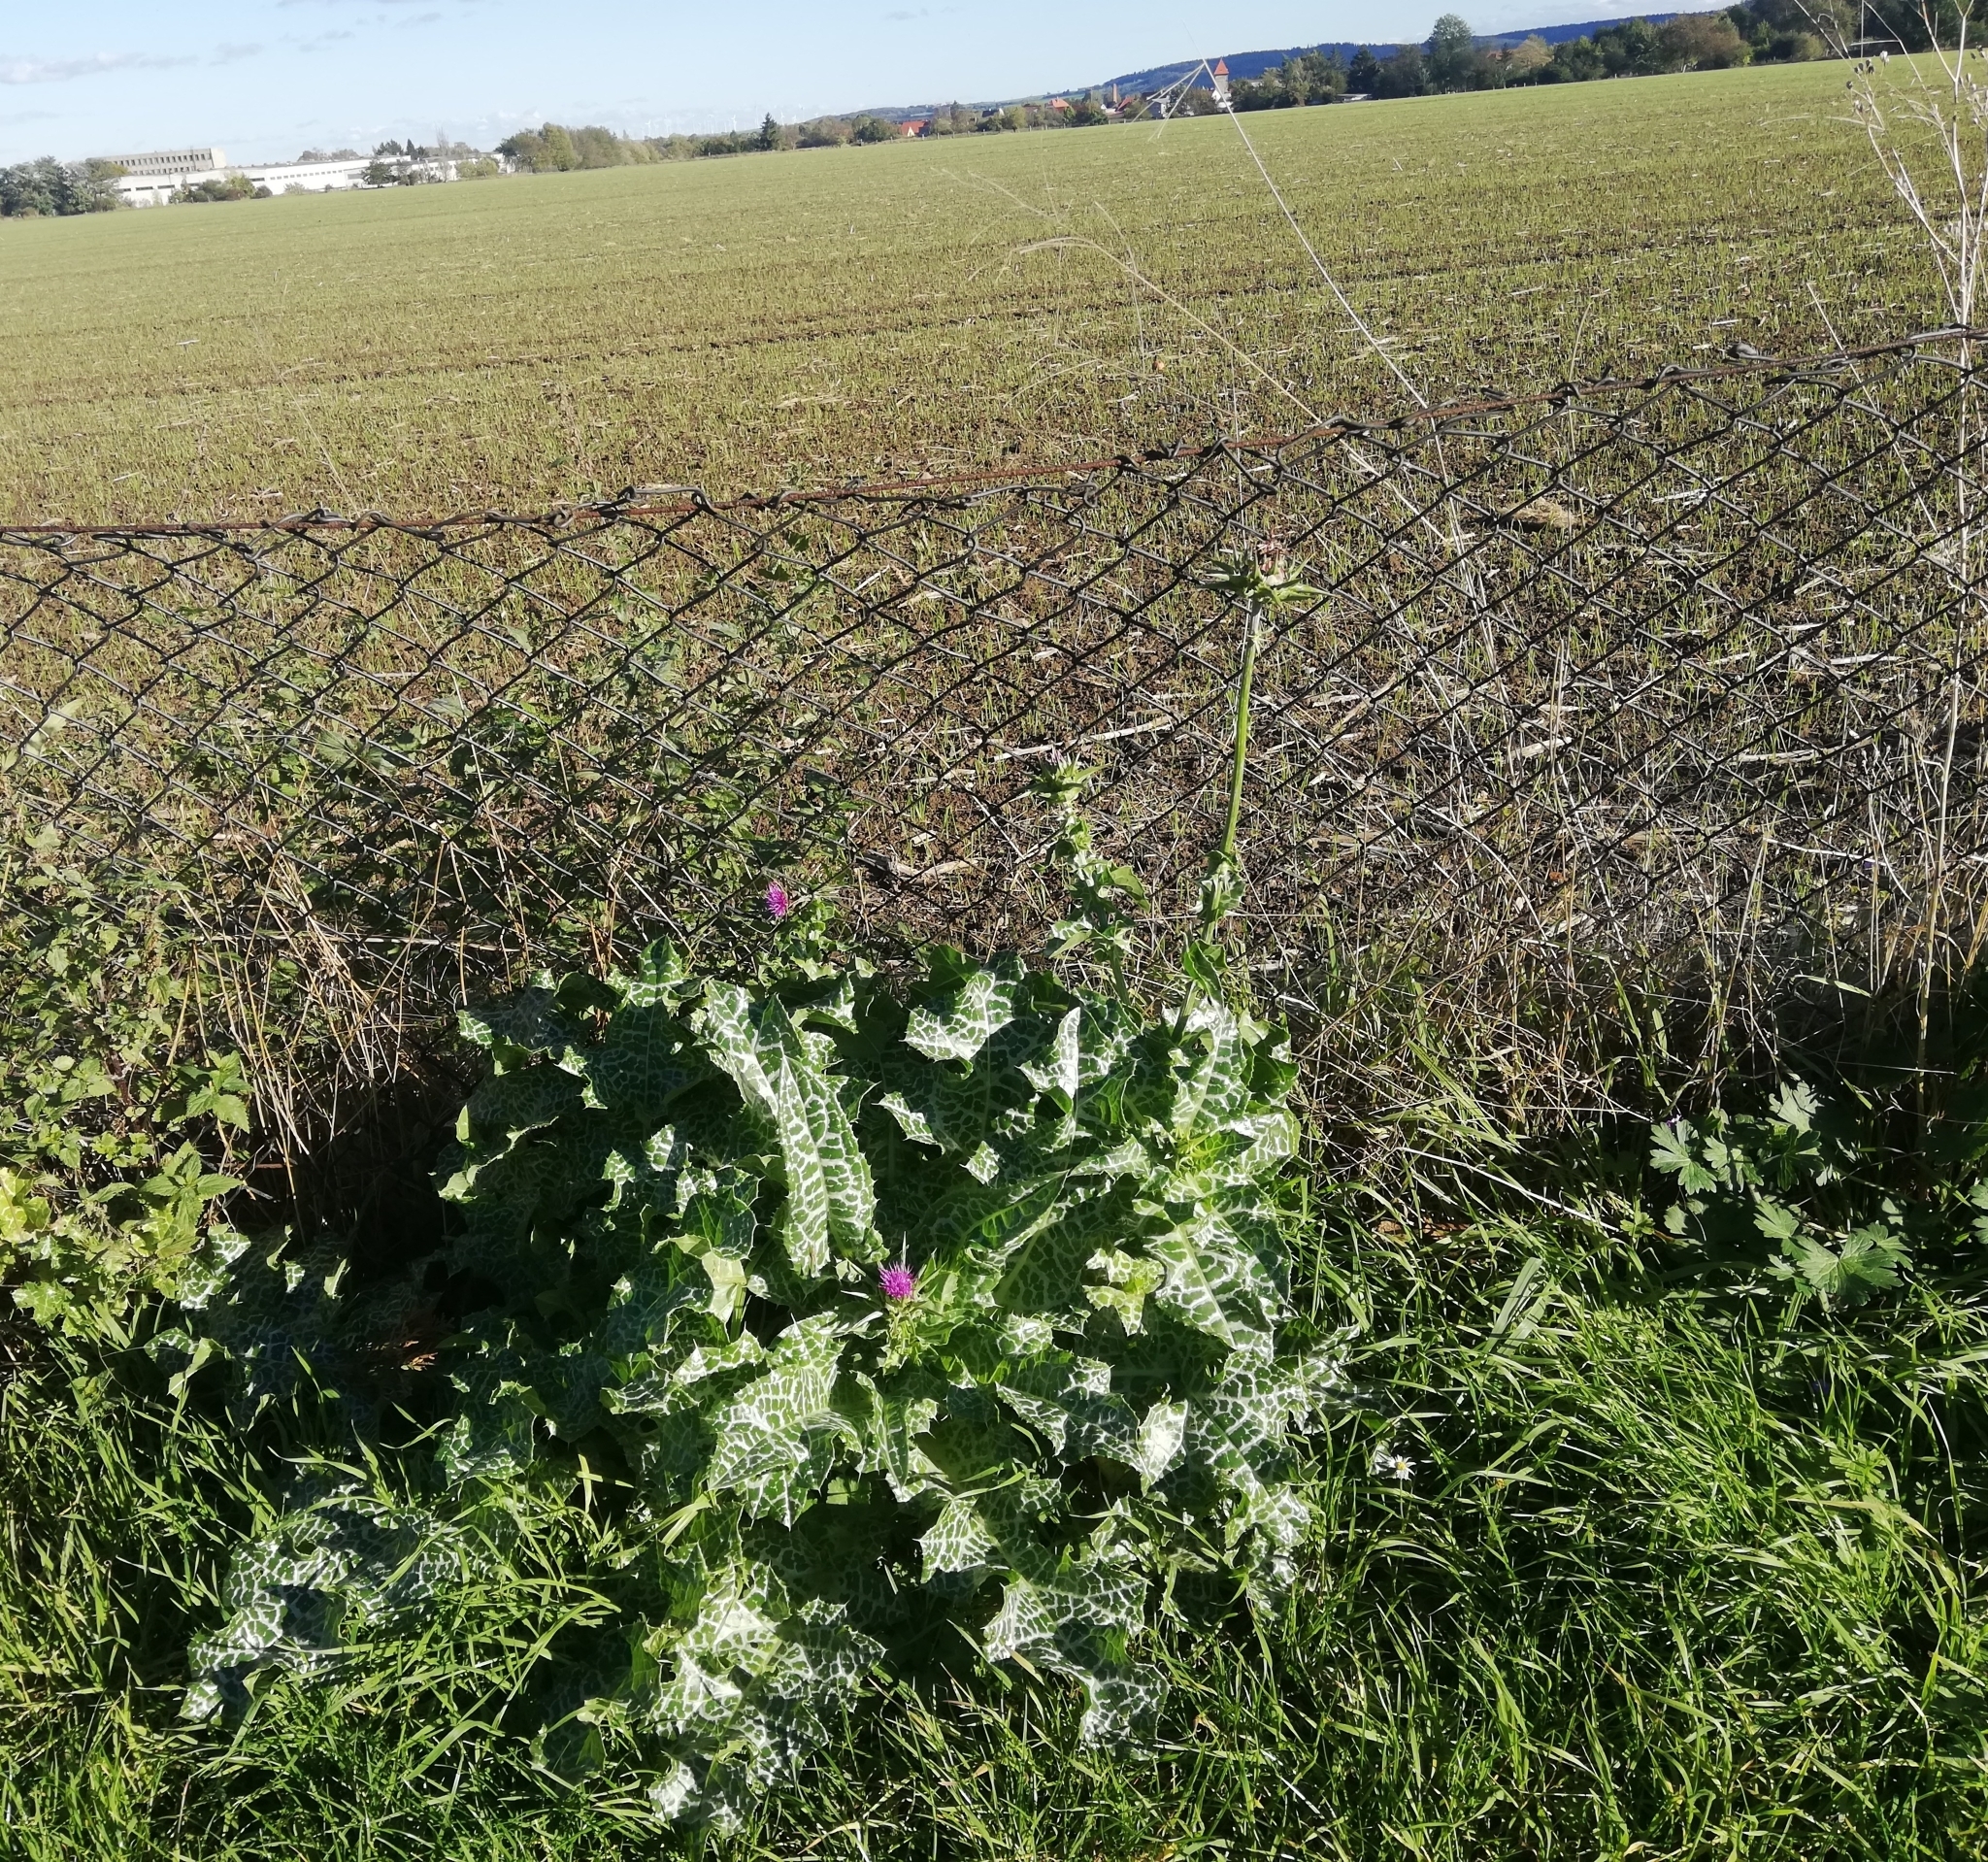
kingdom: Plantae
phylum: Tracheophyta
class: Magnoliopsida
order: Asterales
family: Asteraceae
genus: Silybum
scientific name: Silybum marianum
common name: Milk thistle
